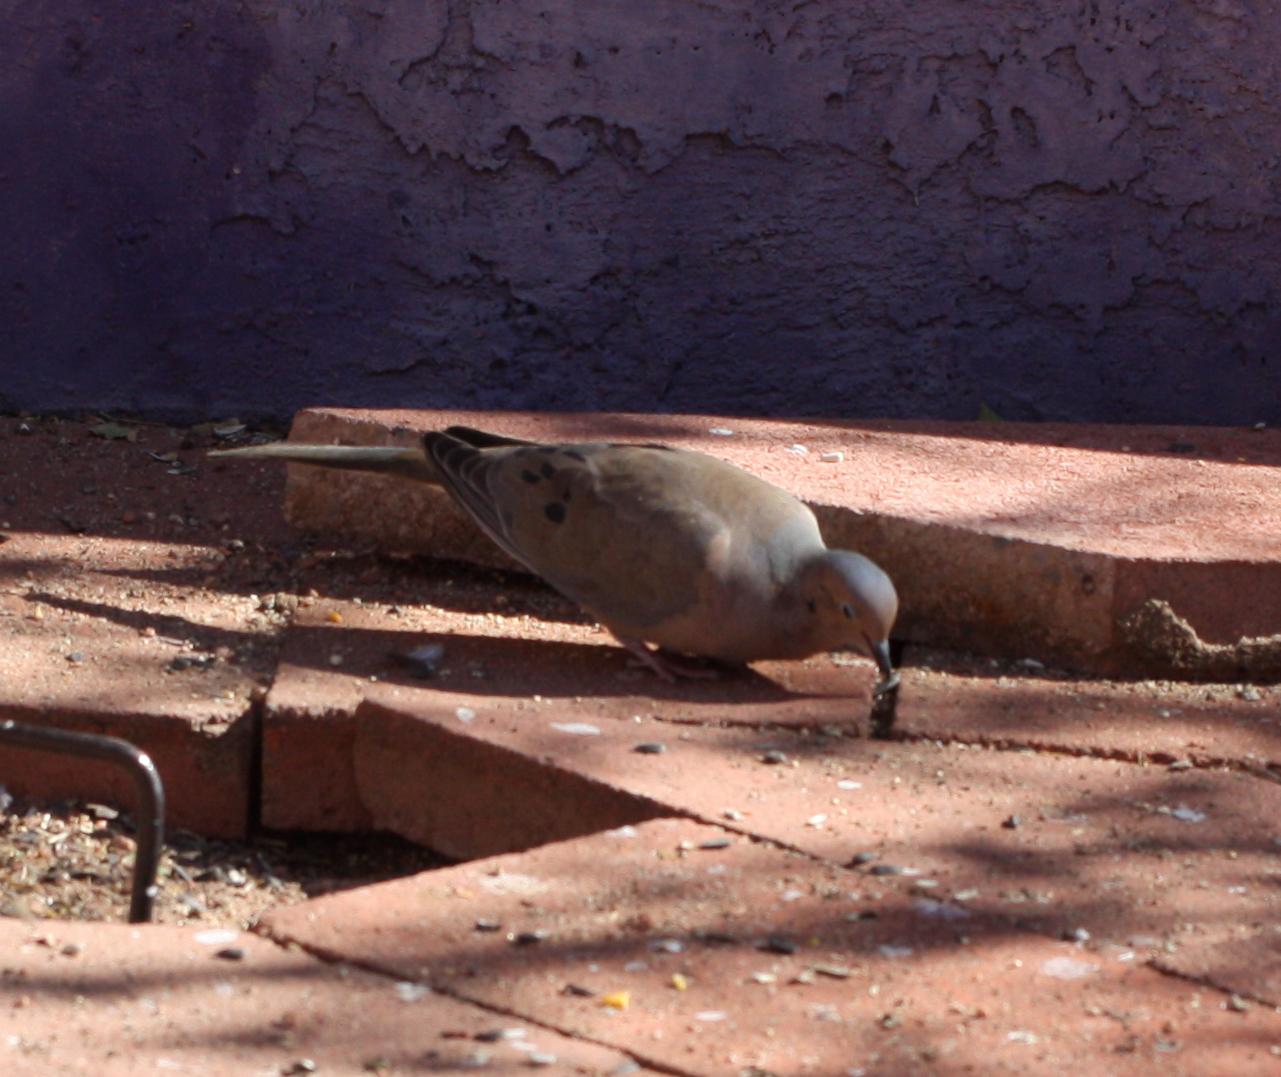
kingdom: Animalia
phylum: Chordata
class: Aves
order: Columbiformes
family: Columbidae
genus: Zenaida
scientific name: Zenaida macroura
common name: Mourning dove
